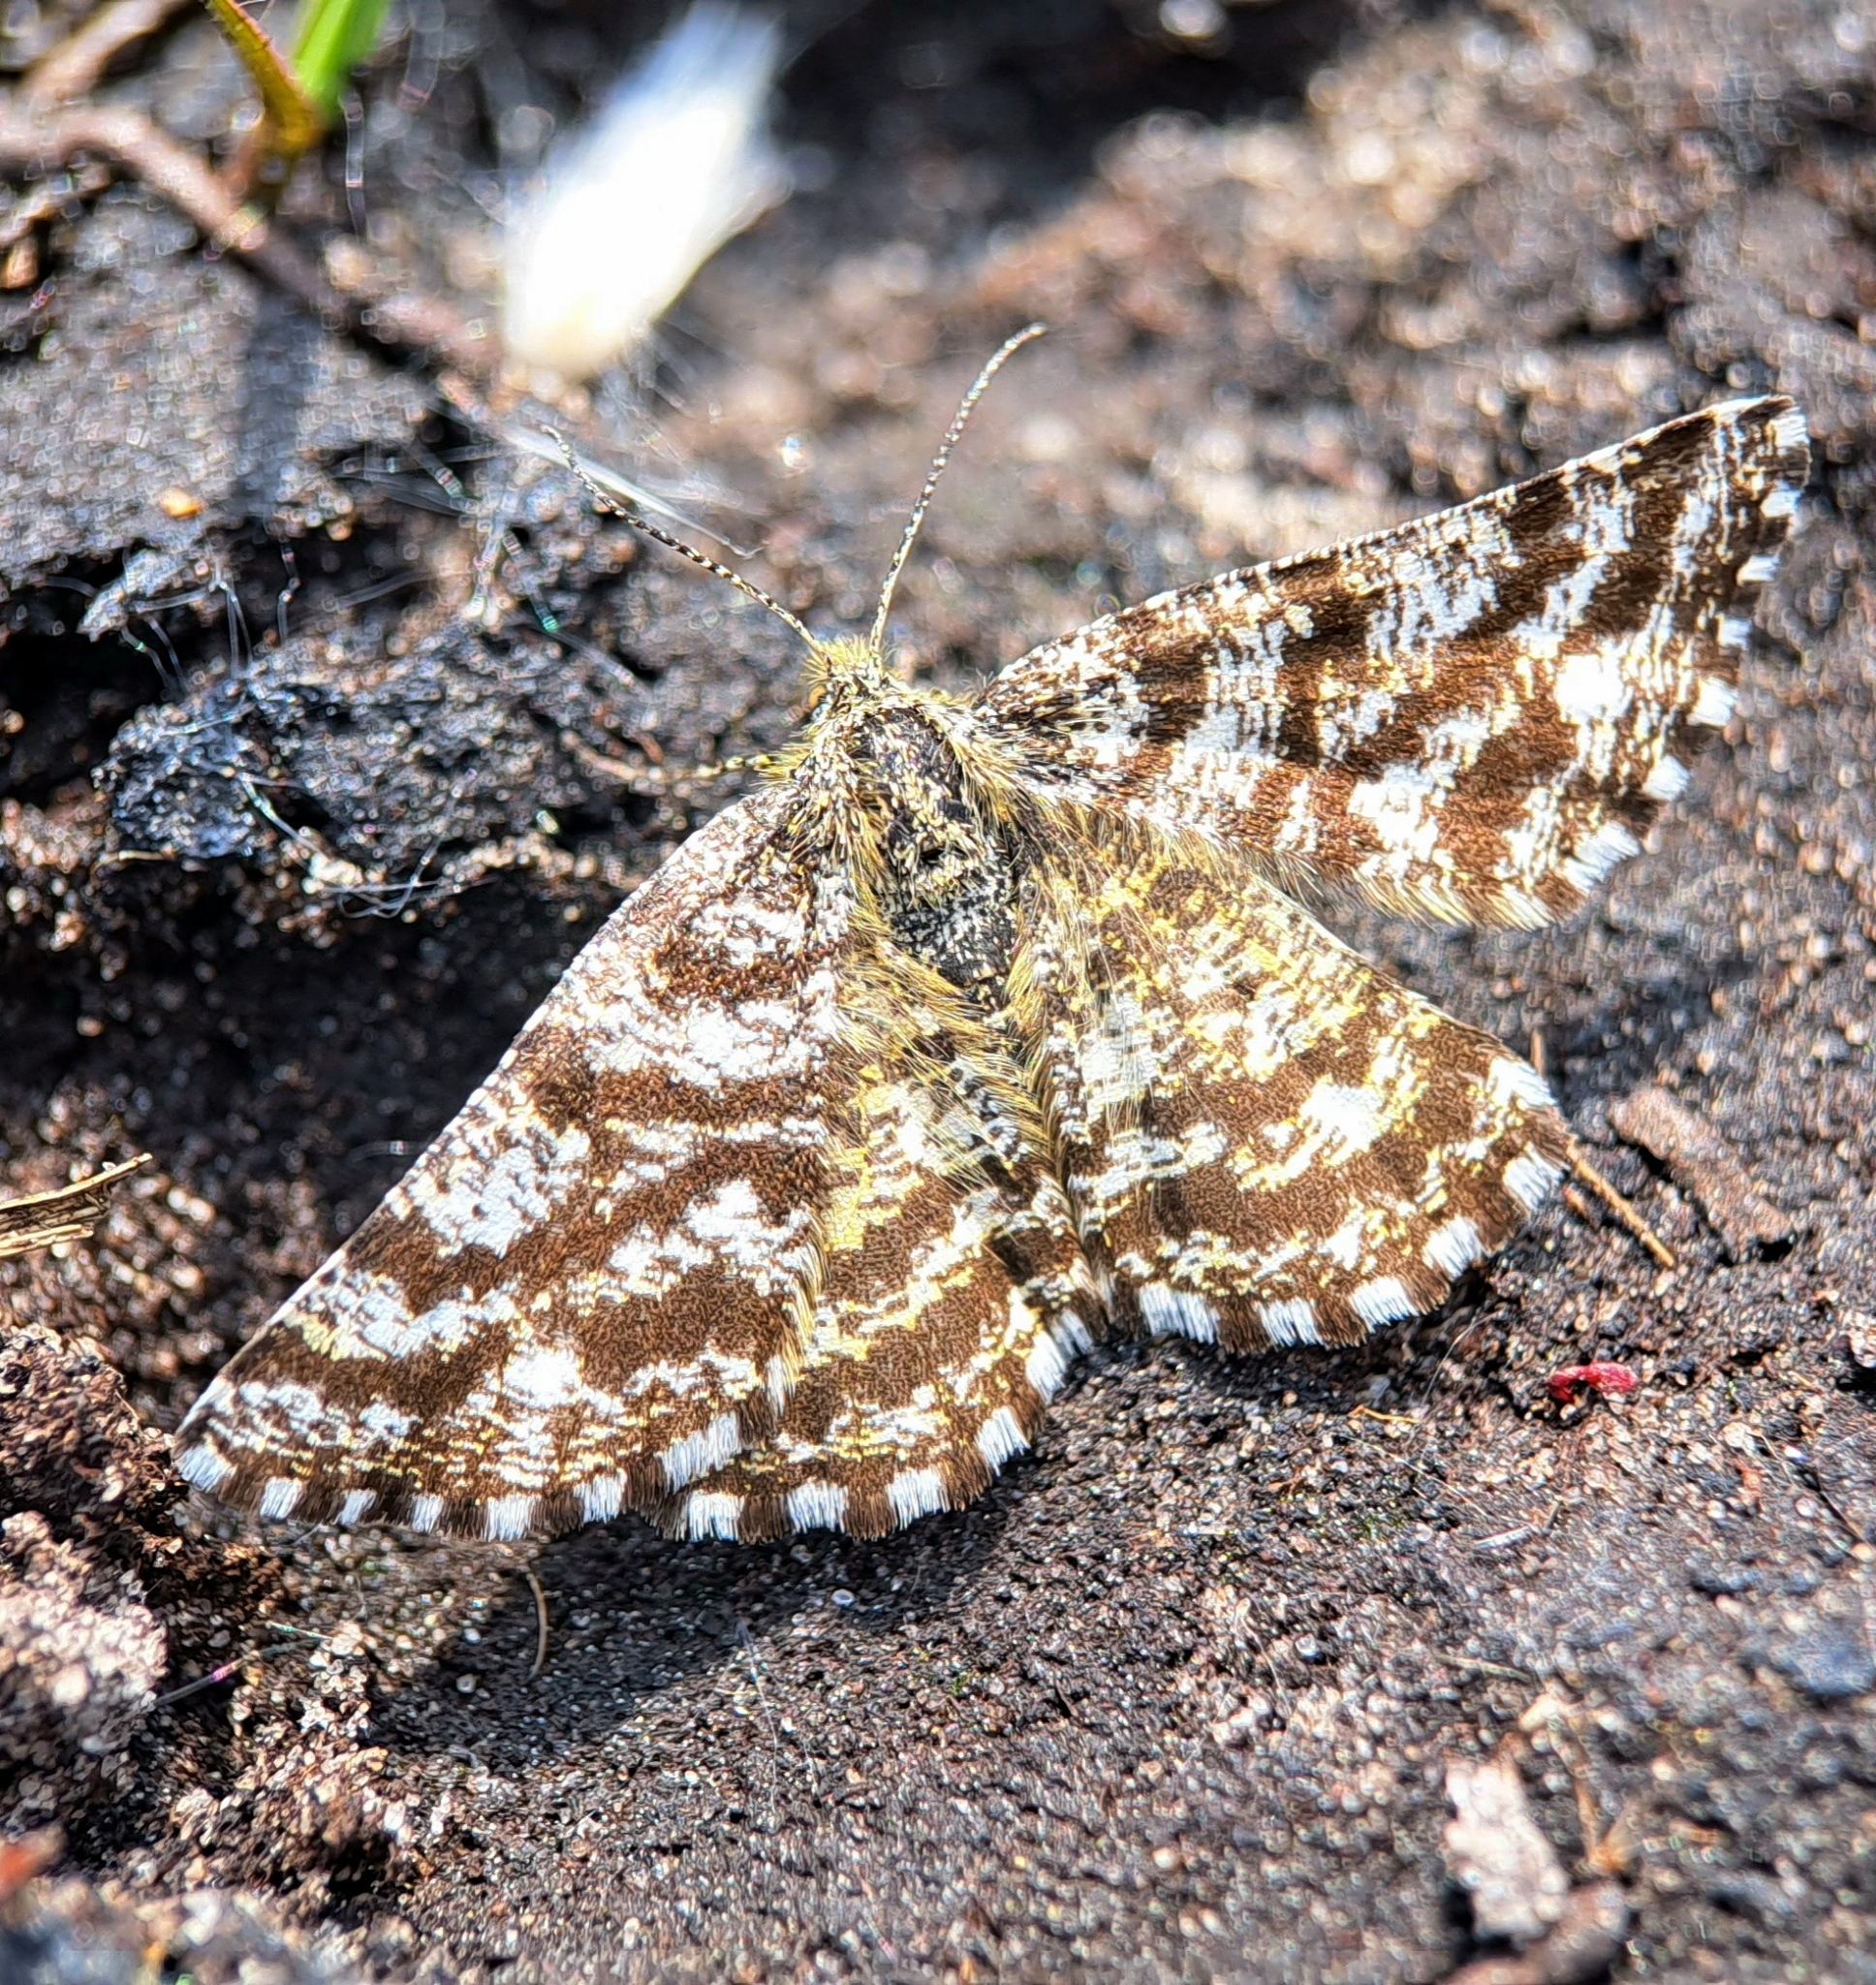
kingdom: Animalia
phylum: Arthropoda
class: Insecta
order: Lepidoptera
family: Geometridae
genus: Ematurga
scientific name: Ematurga atomaria
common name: Common heath
